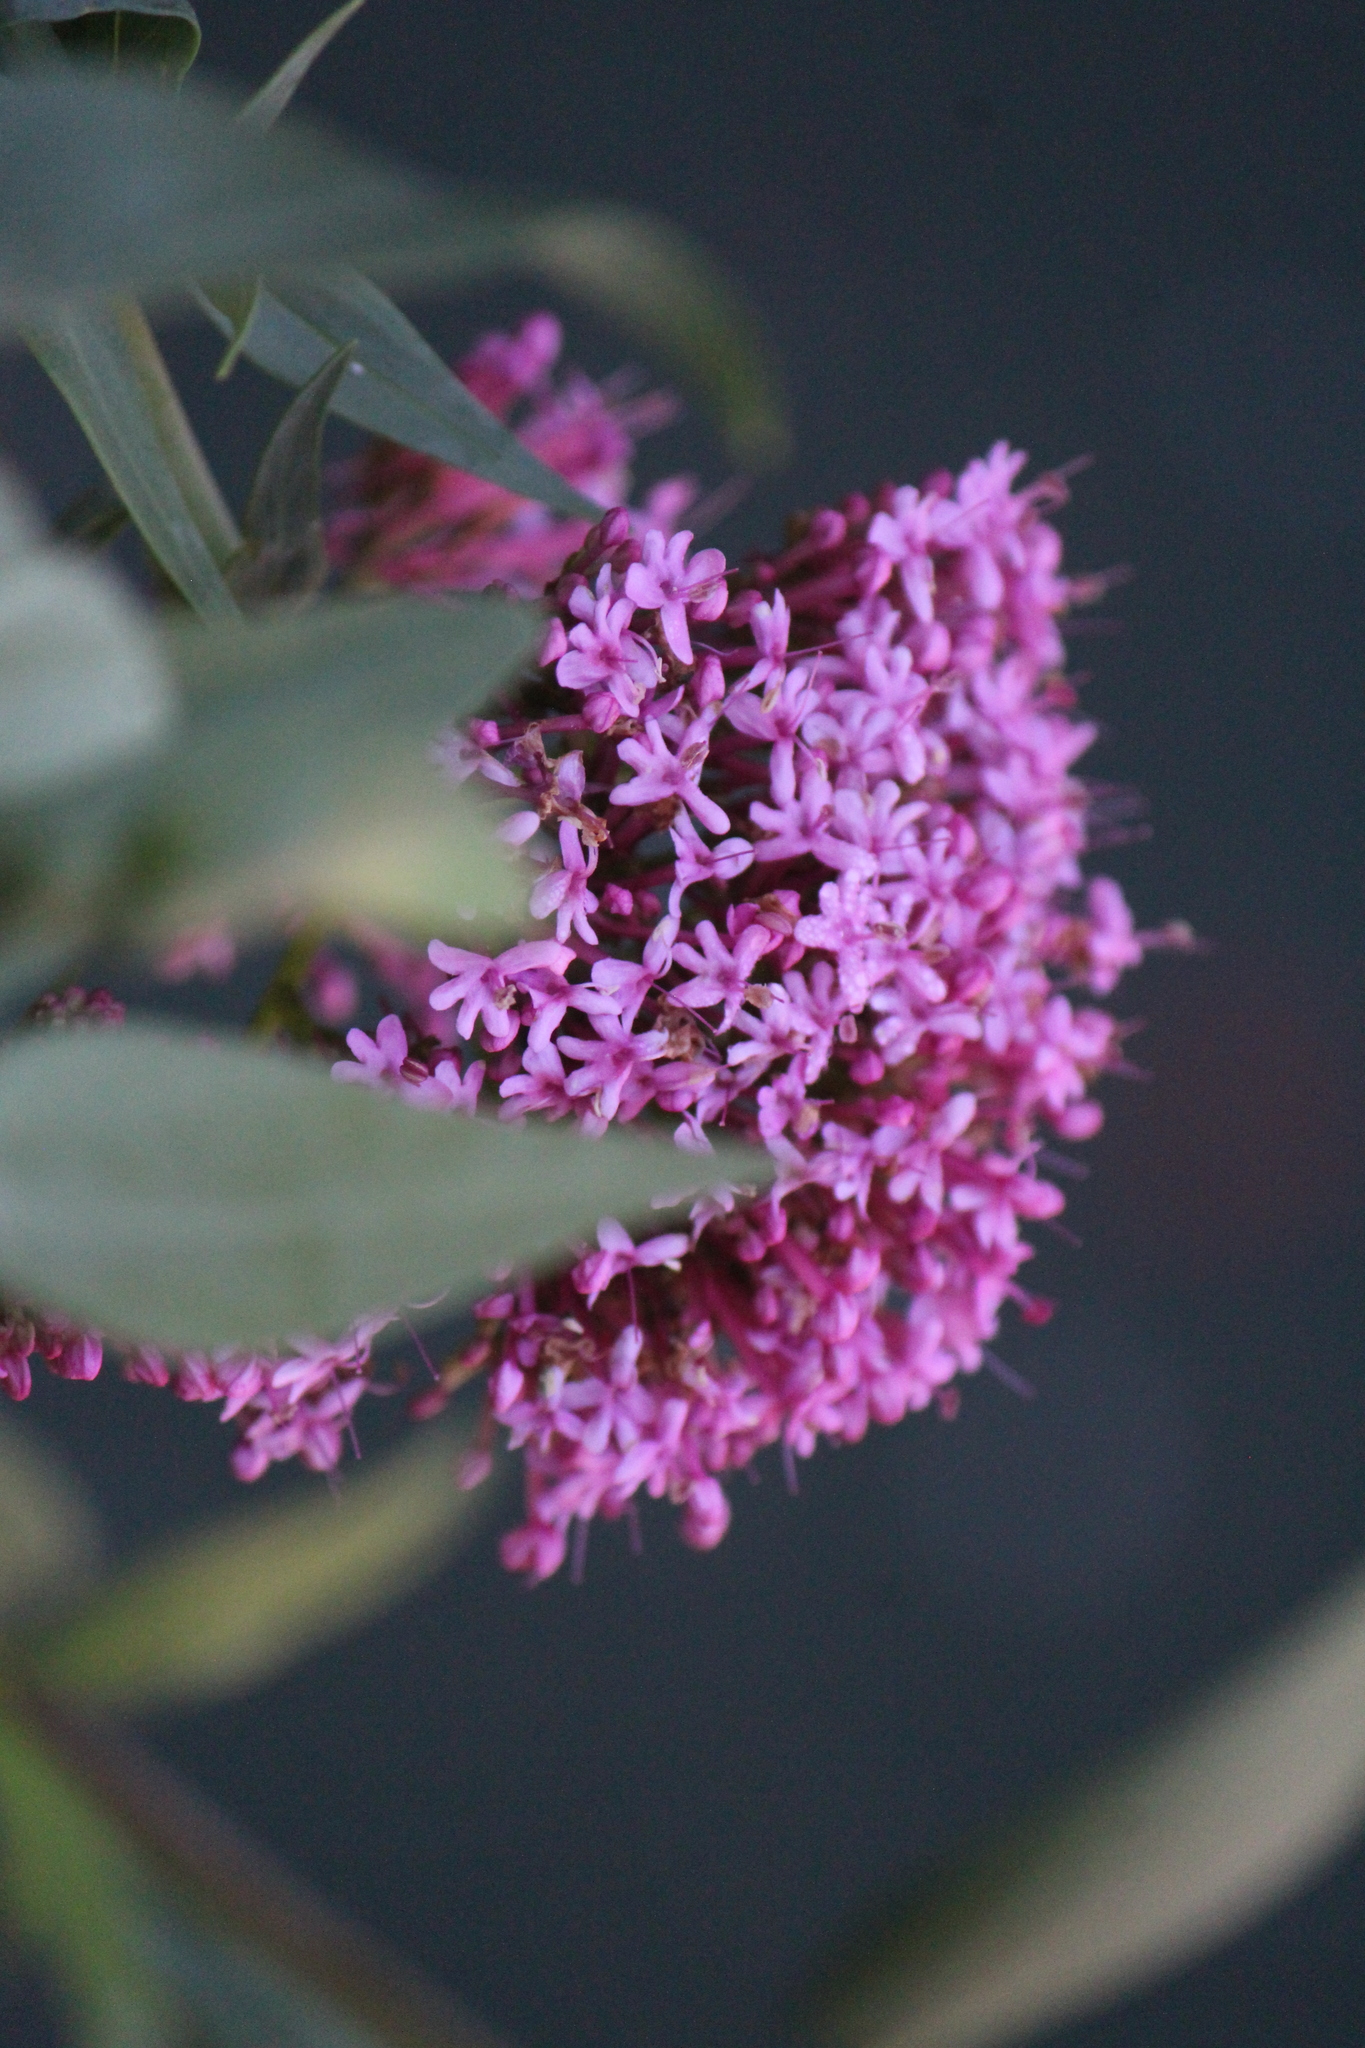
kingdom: Plantae
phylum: Tracheophyta
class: Magnoliopsida
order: Dipsacales
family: Caprifoliaceae
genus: Centranthus
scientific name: Centranthus ruber
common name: Red valerian
